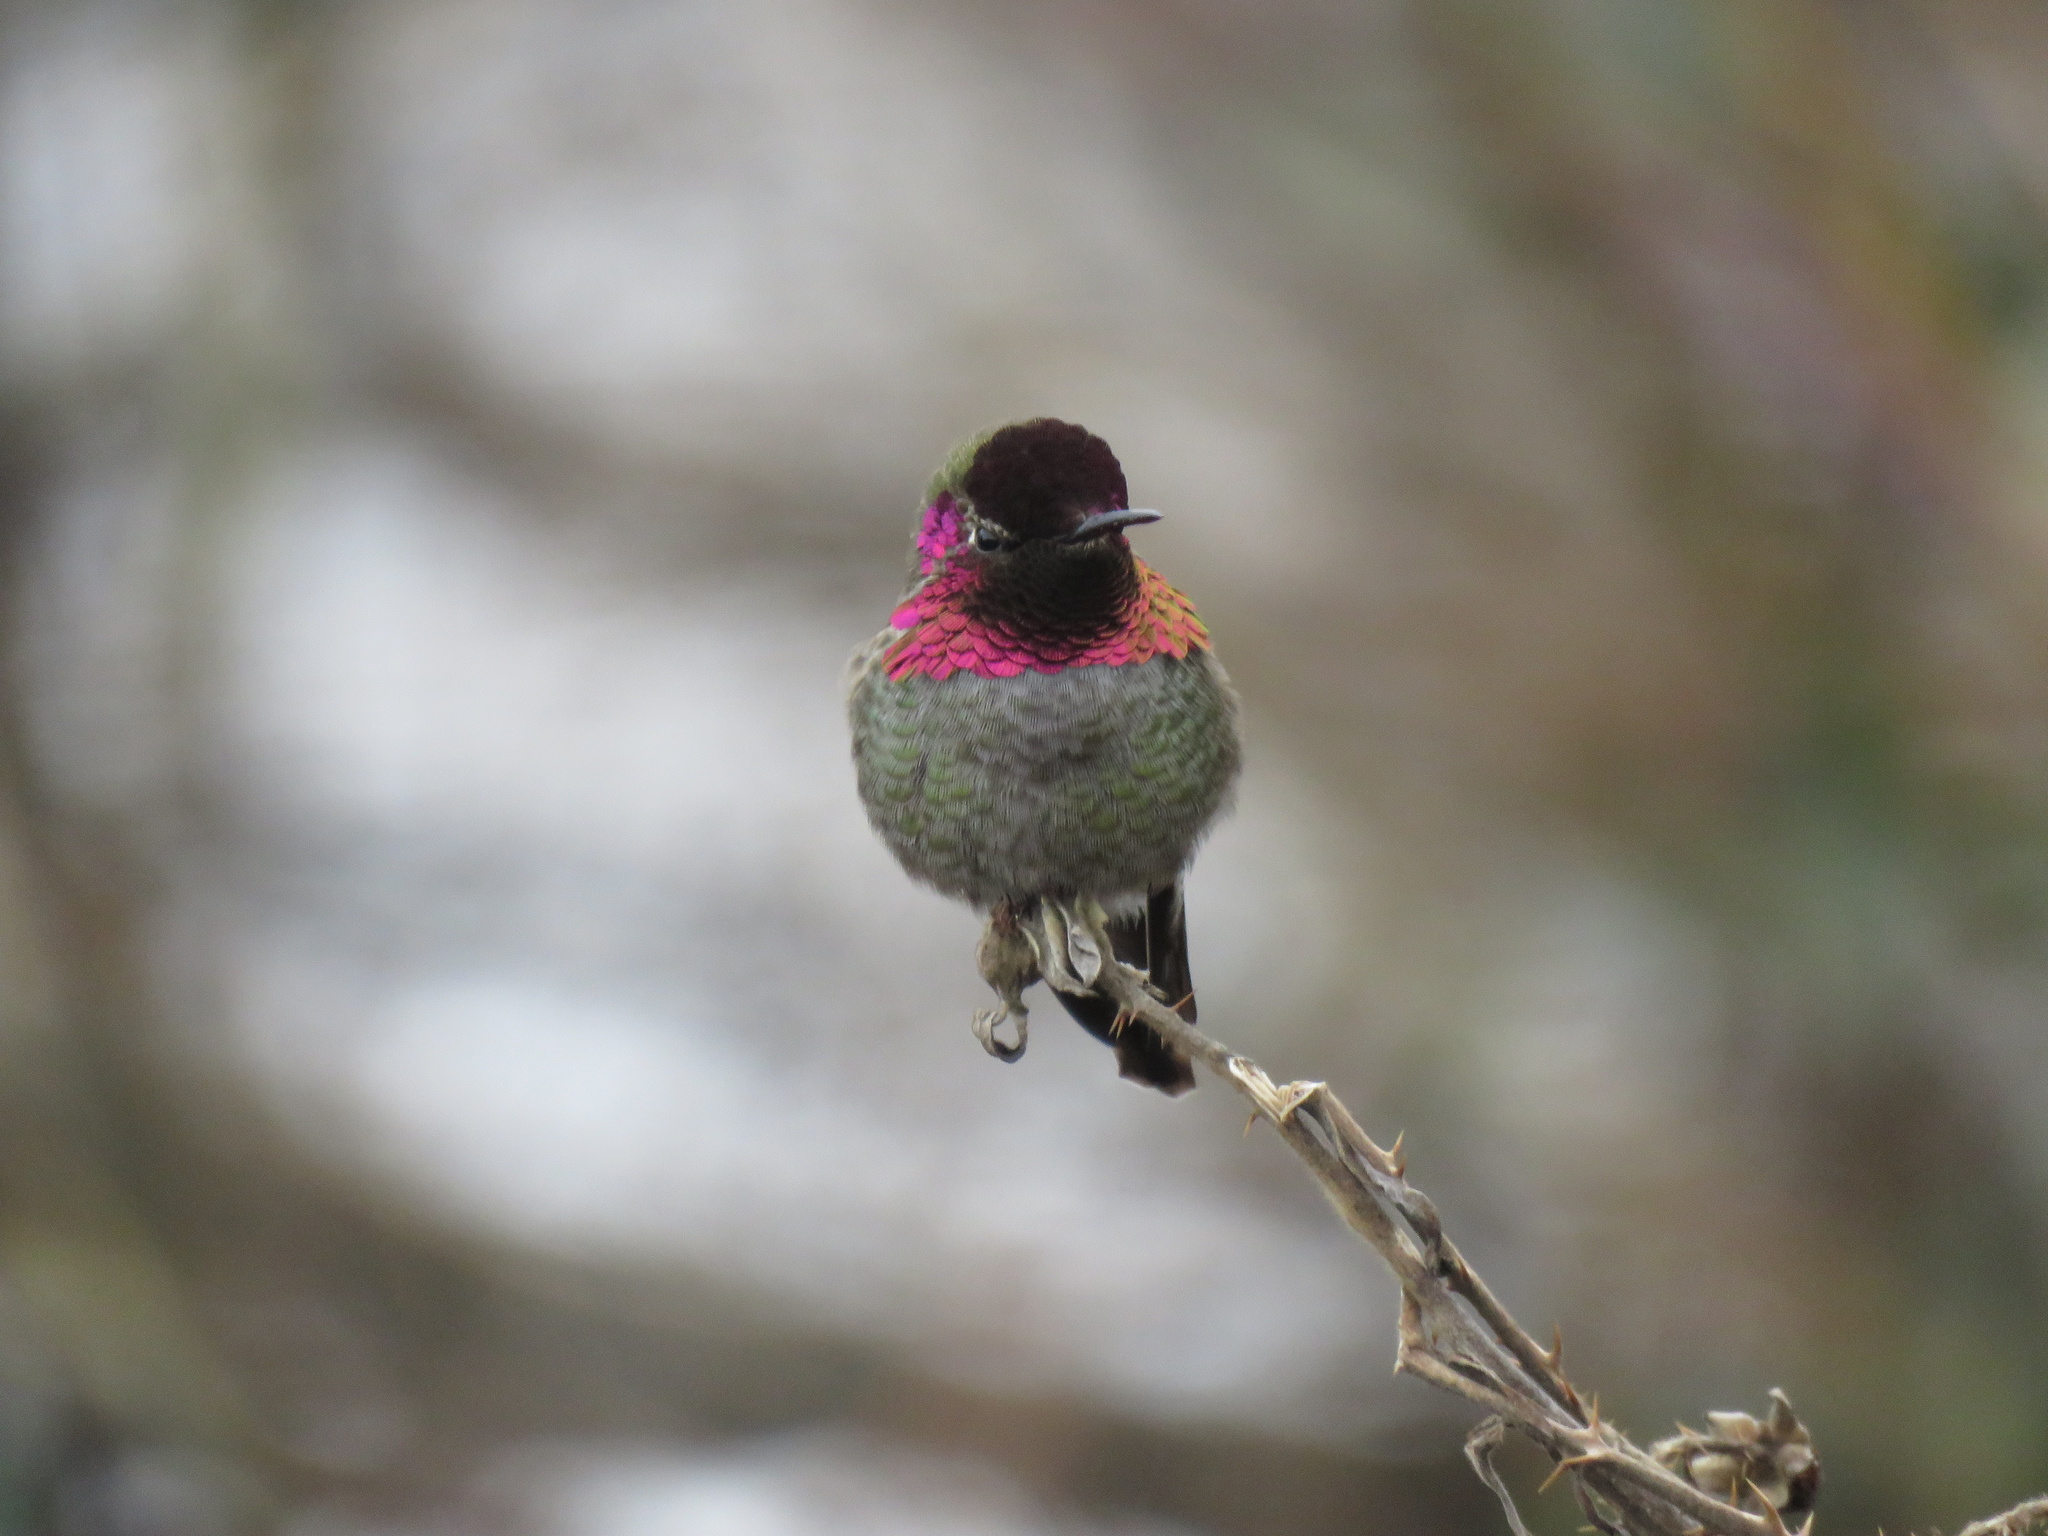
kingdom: Animalia
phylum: Chordata
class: Aves
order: Apodiformes
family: Trochilidae
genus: Calypte
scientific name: Calypte anna
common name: Anna's hummingbird
